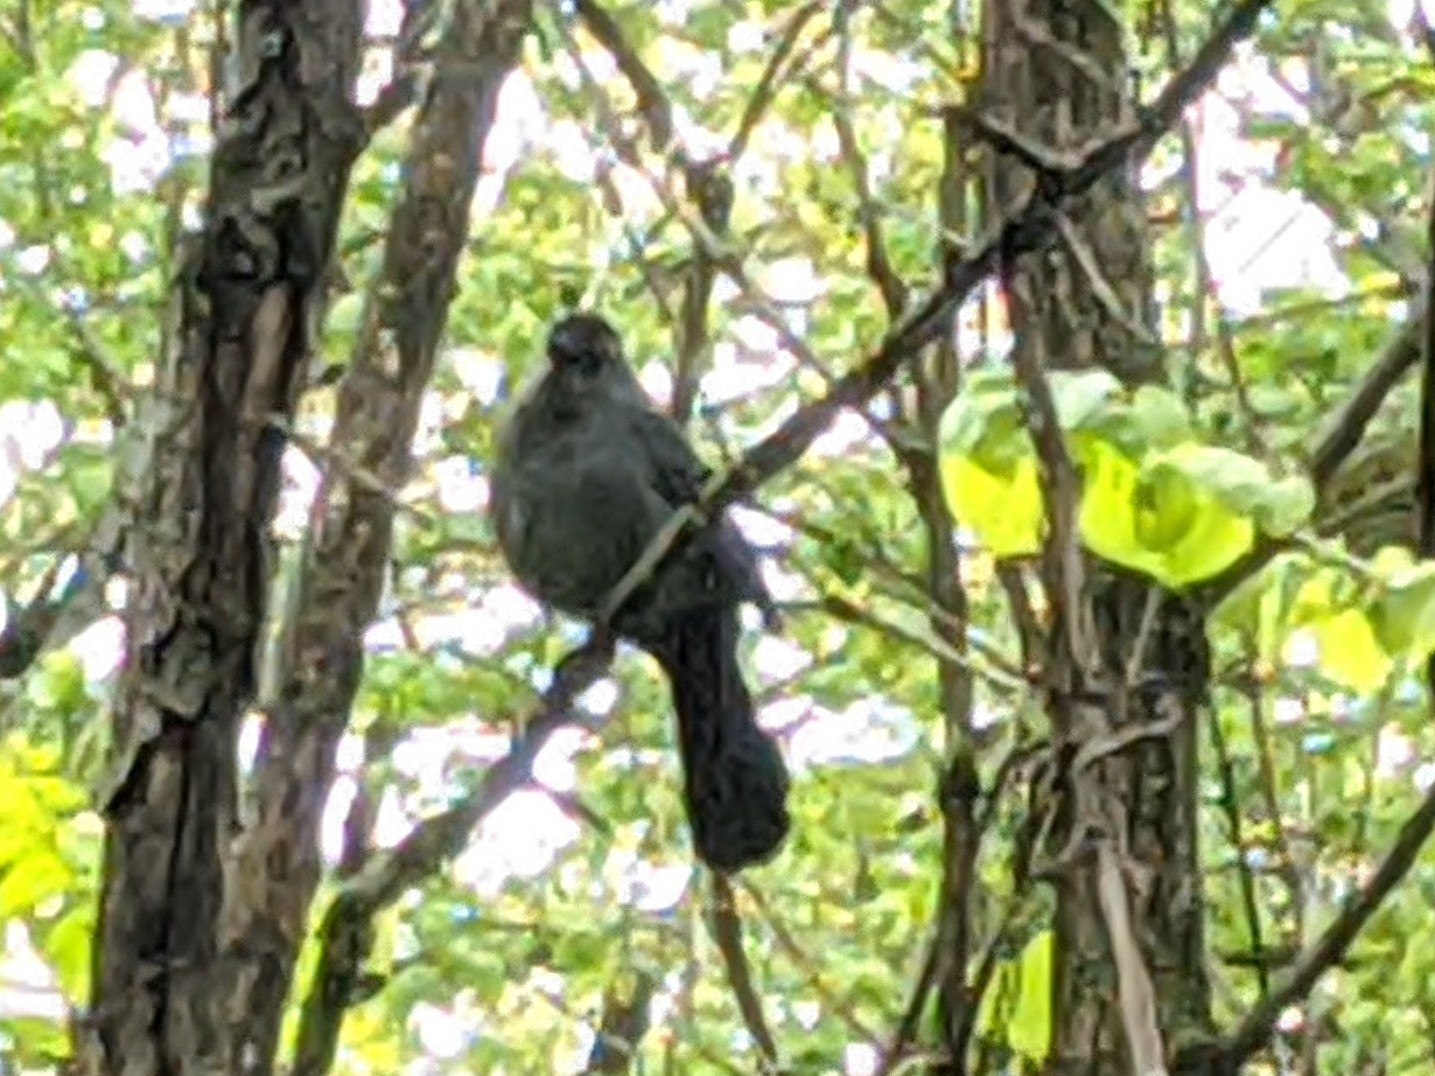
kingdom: Animalia
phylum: Chordata
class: Aves
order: Passeriformes
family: Mimidae
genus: Dumetella
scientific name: Dumetella carolinensis
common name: Gray catbird
